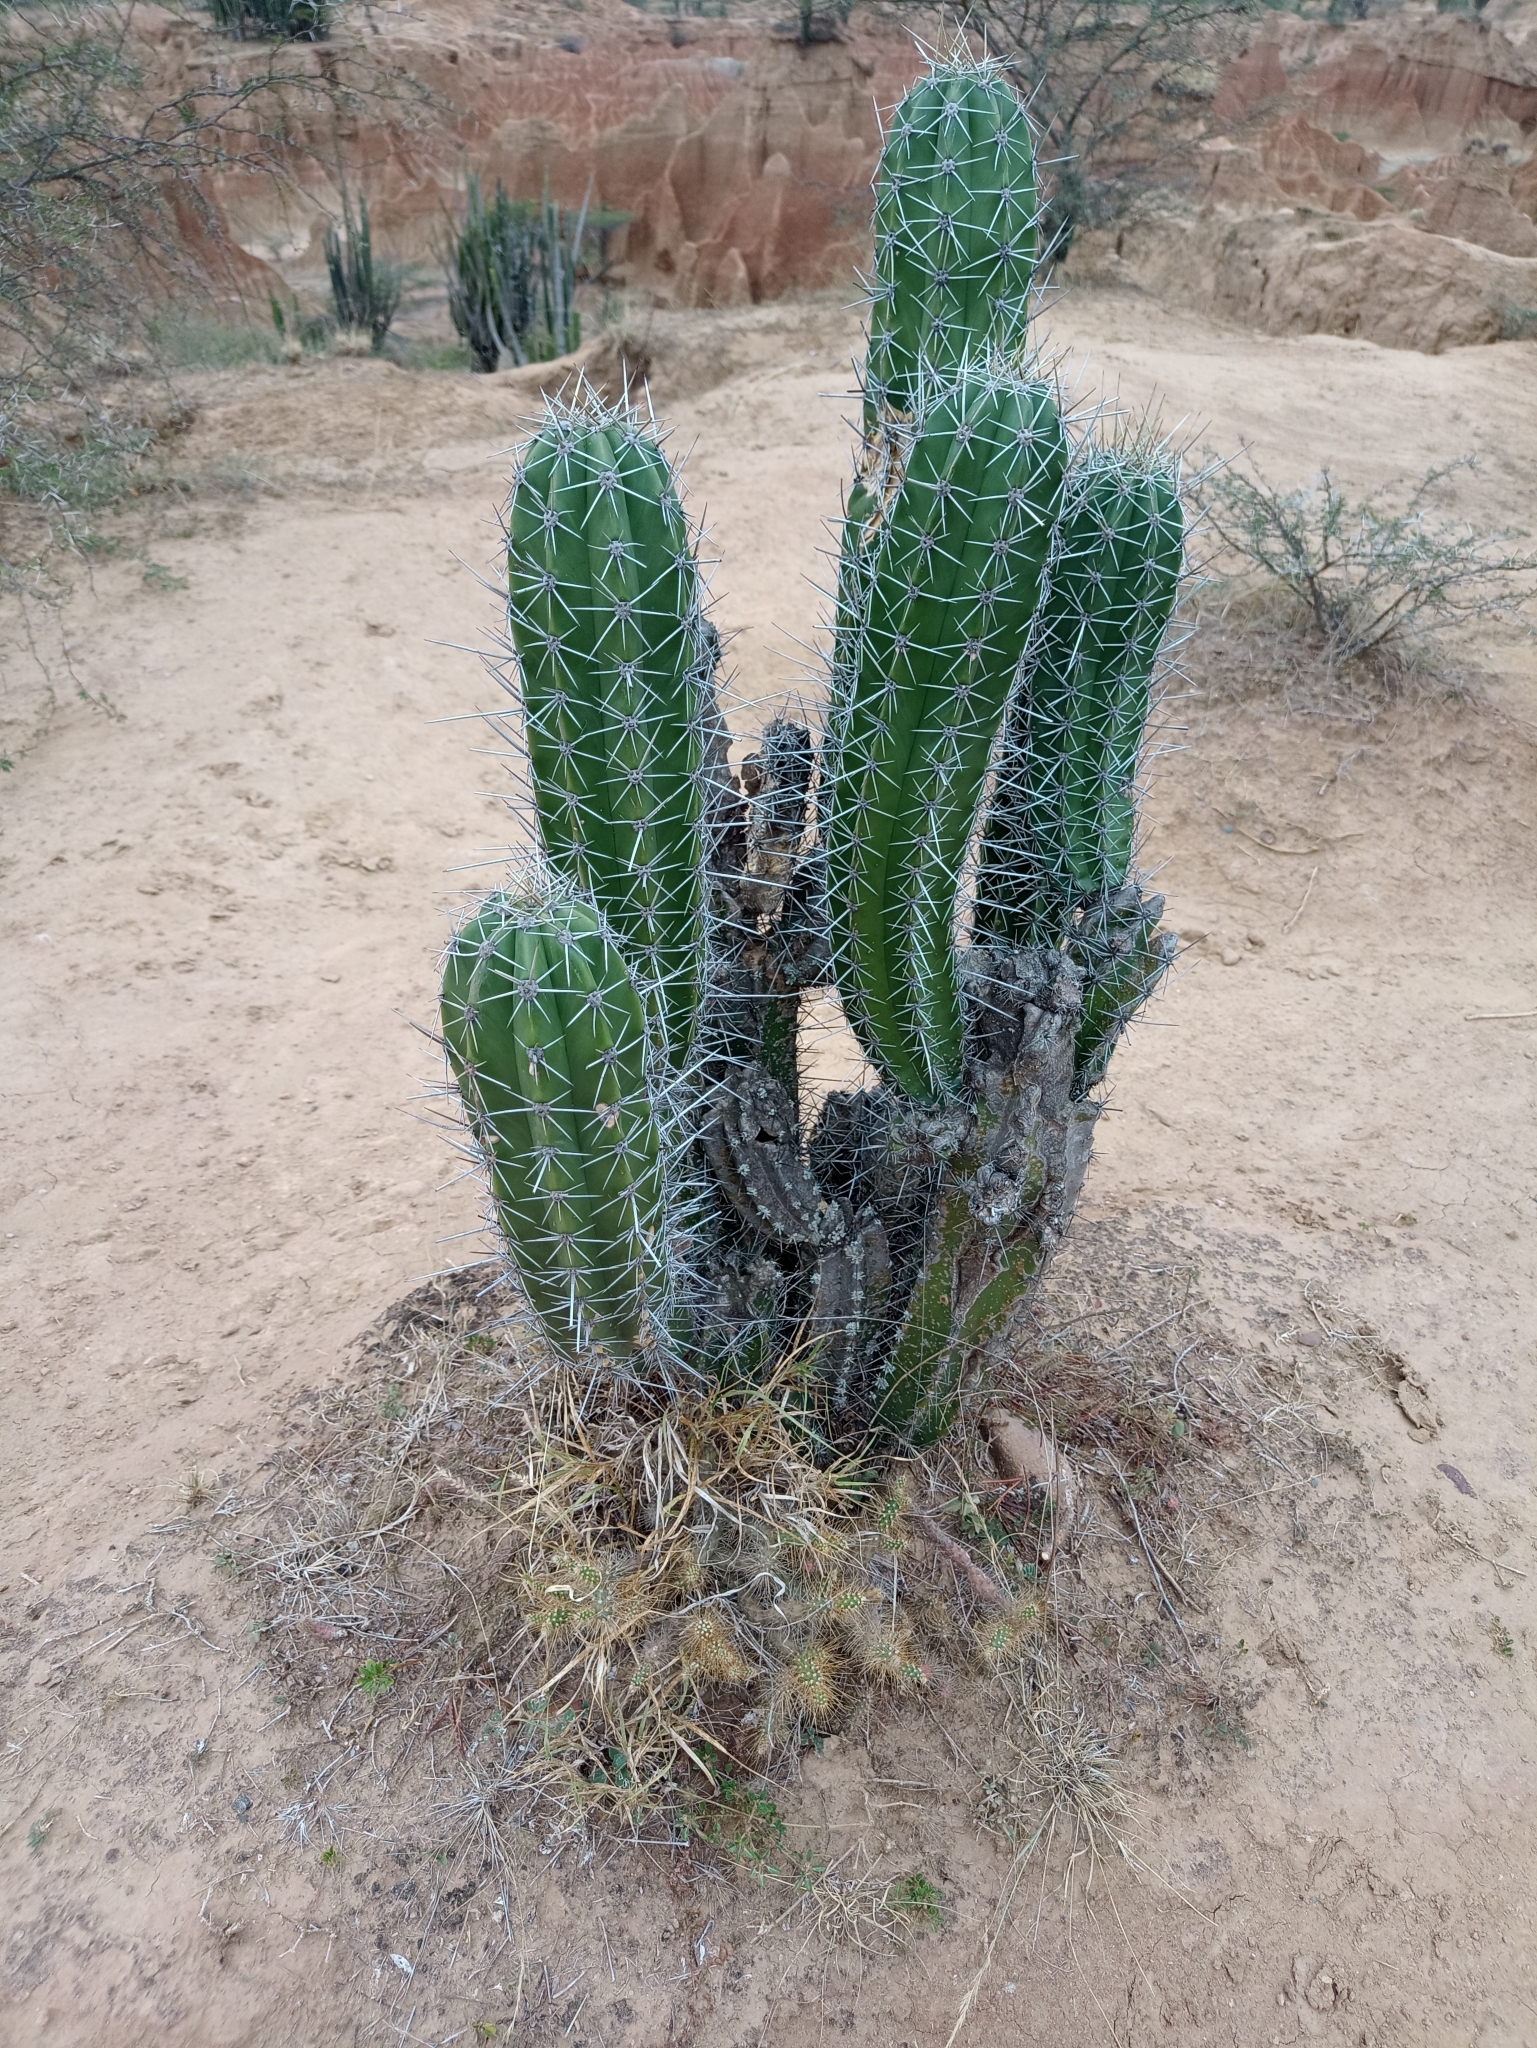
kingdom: Plantae
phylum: Tracheophyta
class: Magnoliopsida
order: Caryophyllales
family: Cactaceae
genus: Stenocereus
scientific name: Stenocereus griseus
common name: Tall candelabra cactus
